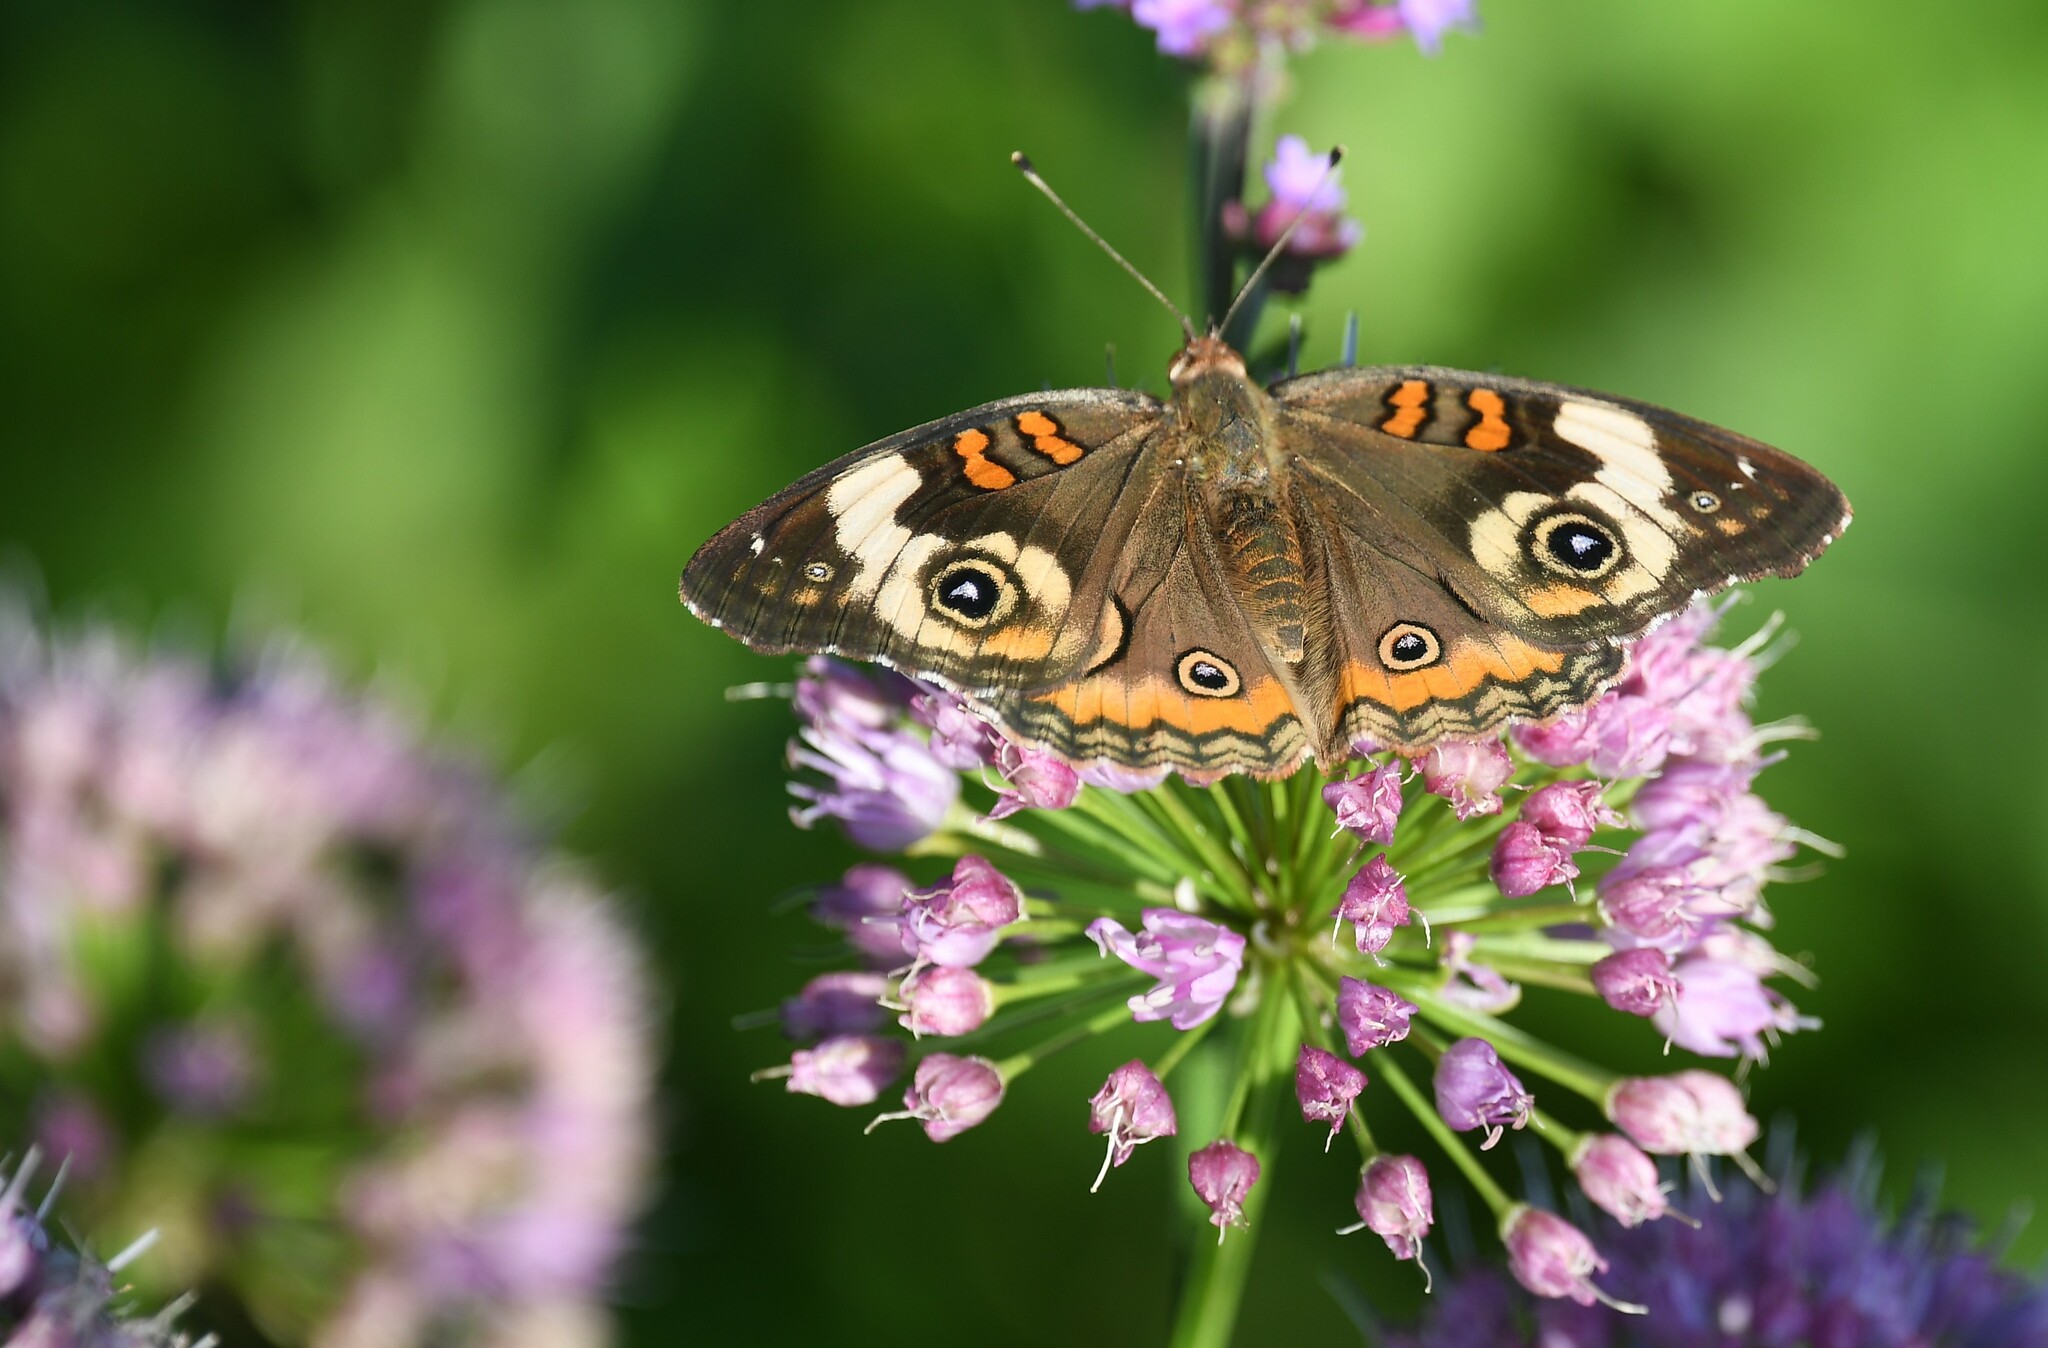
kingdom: Animalia
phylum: Arthropoda
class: Insecta
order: Lepidoptera
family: Nymphalidae
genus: Junonia
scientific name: Junonia coenia
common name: Common buckeye
